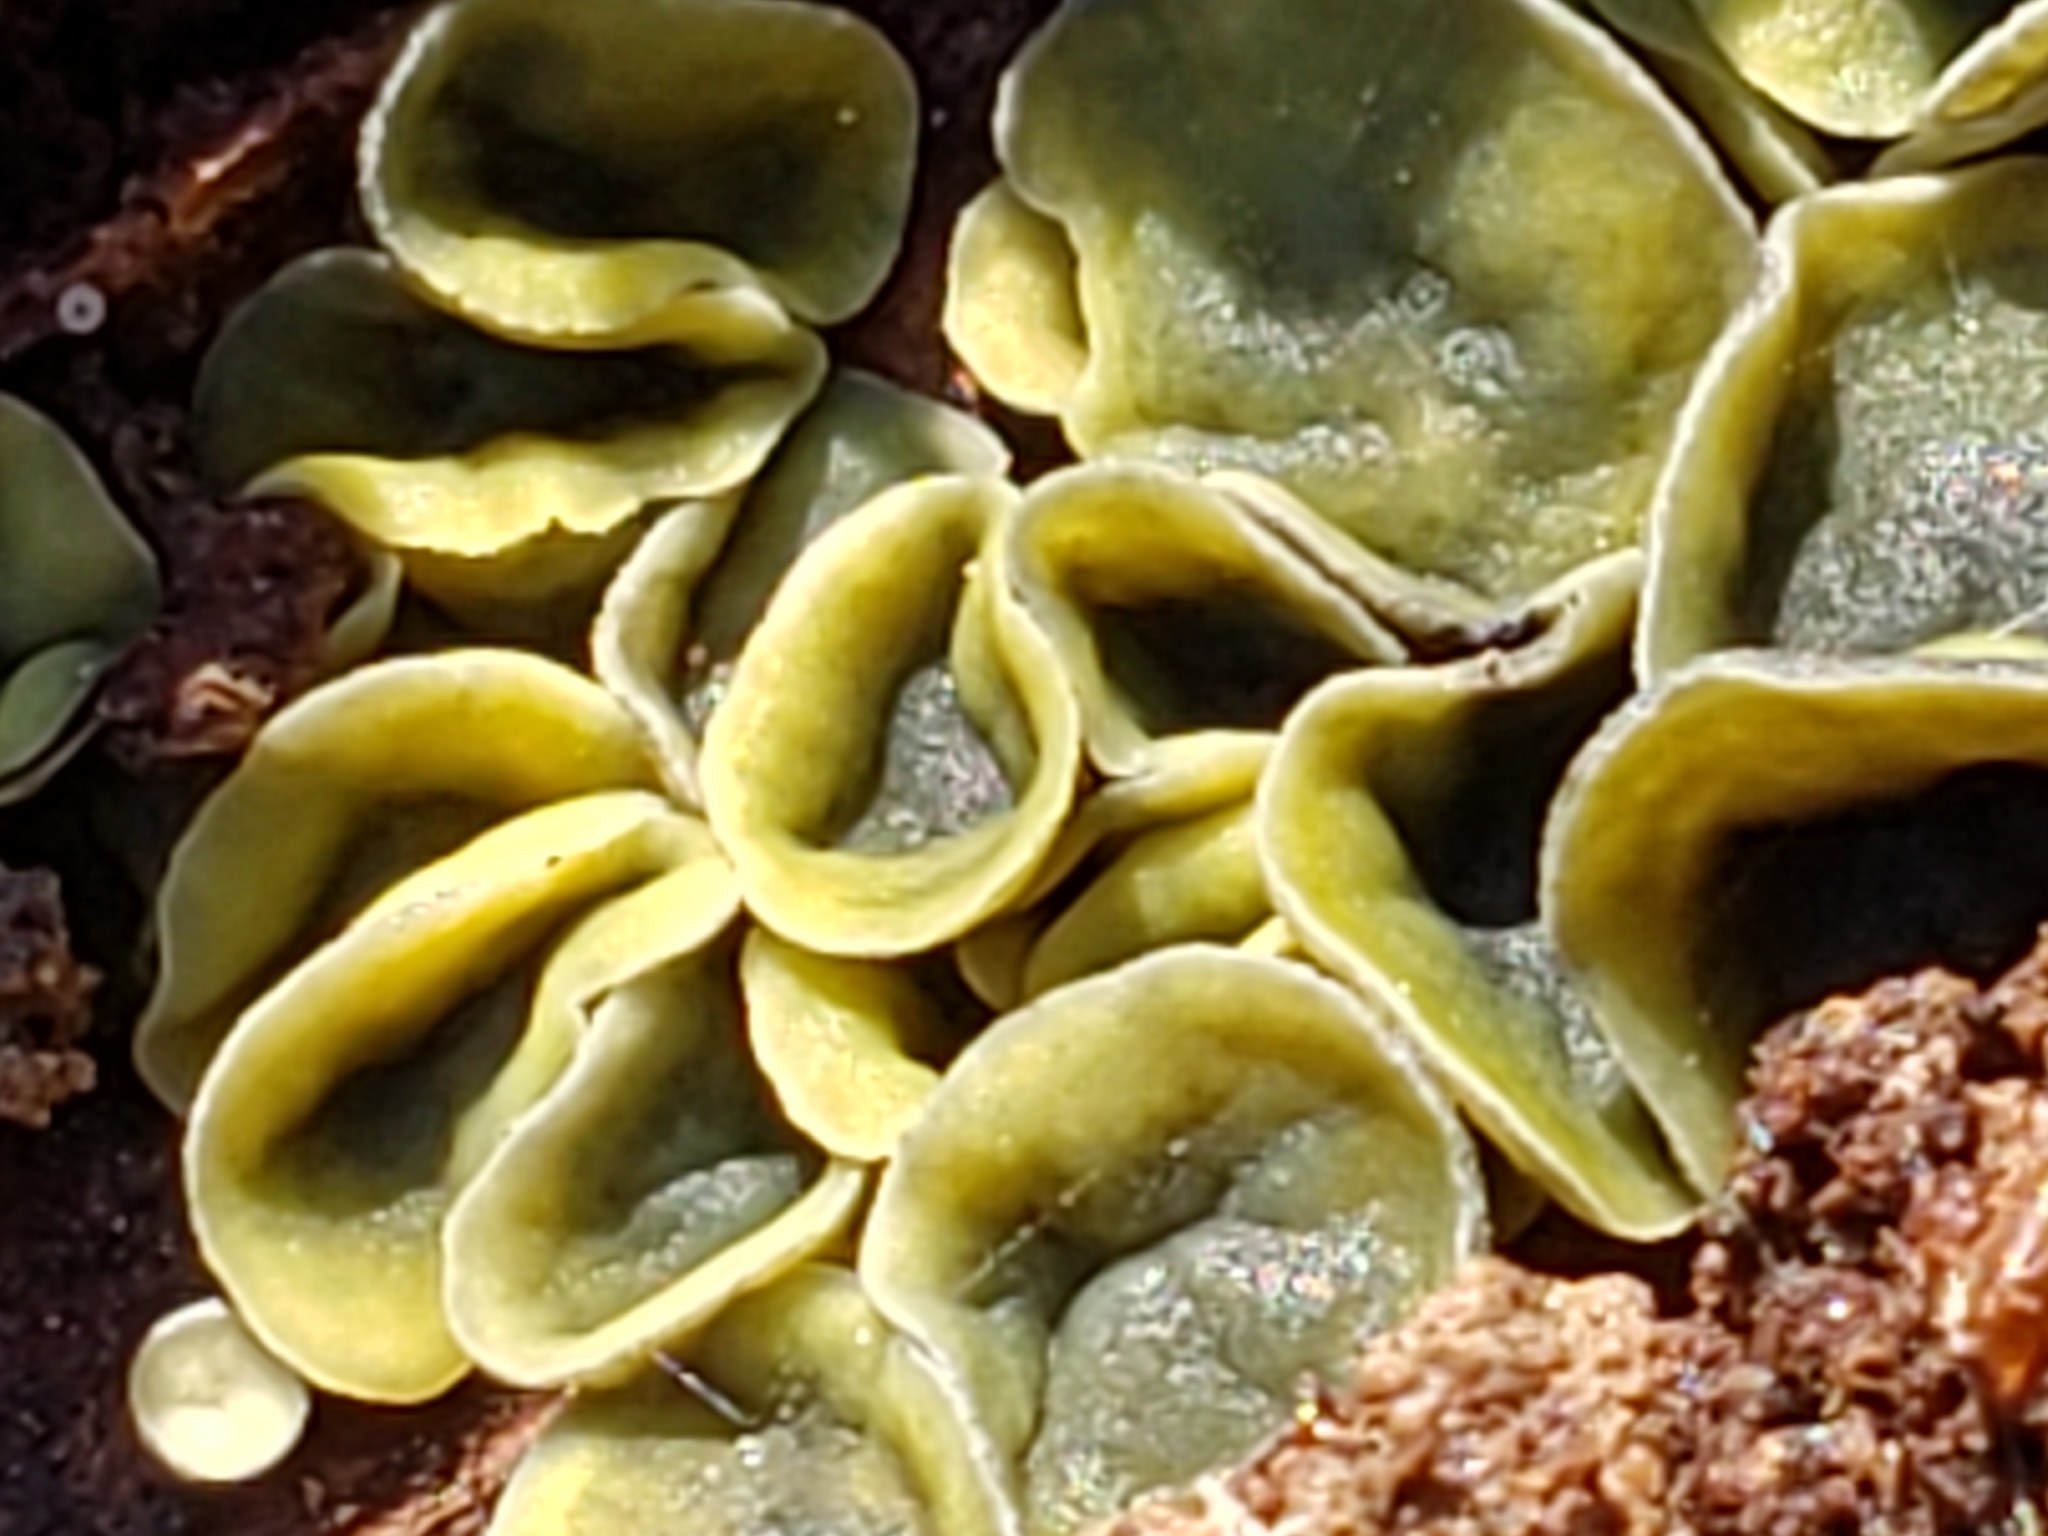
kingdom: Fungi
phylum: Ascomycota
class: Leotiomycetes
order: Helotiales
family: Chlorospleniaceae
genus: Chlorosplenium
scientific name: Chlorosplenium chlora
